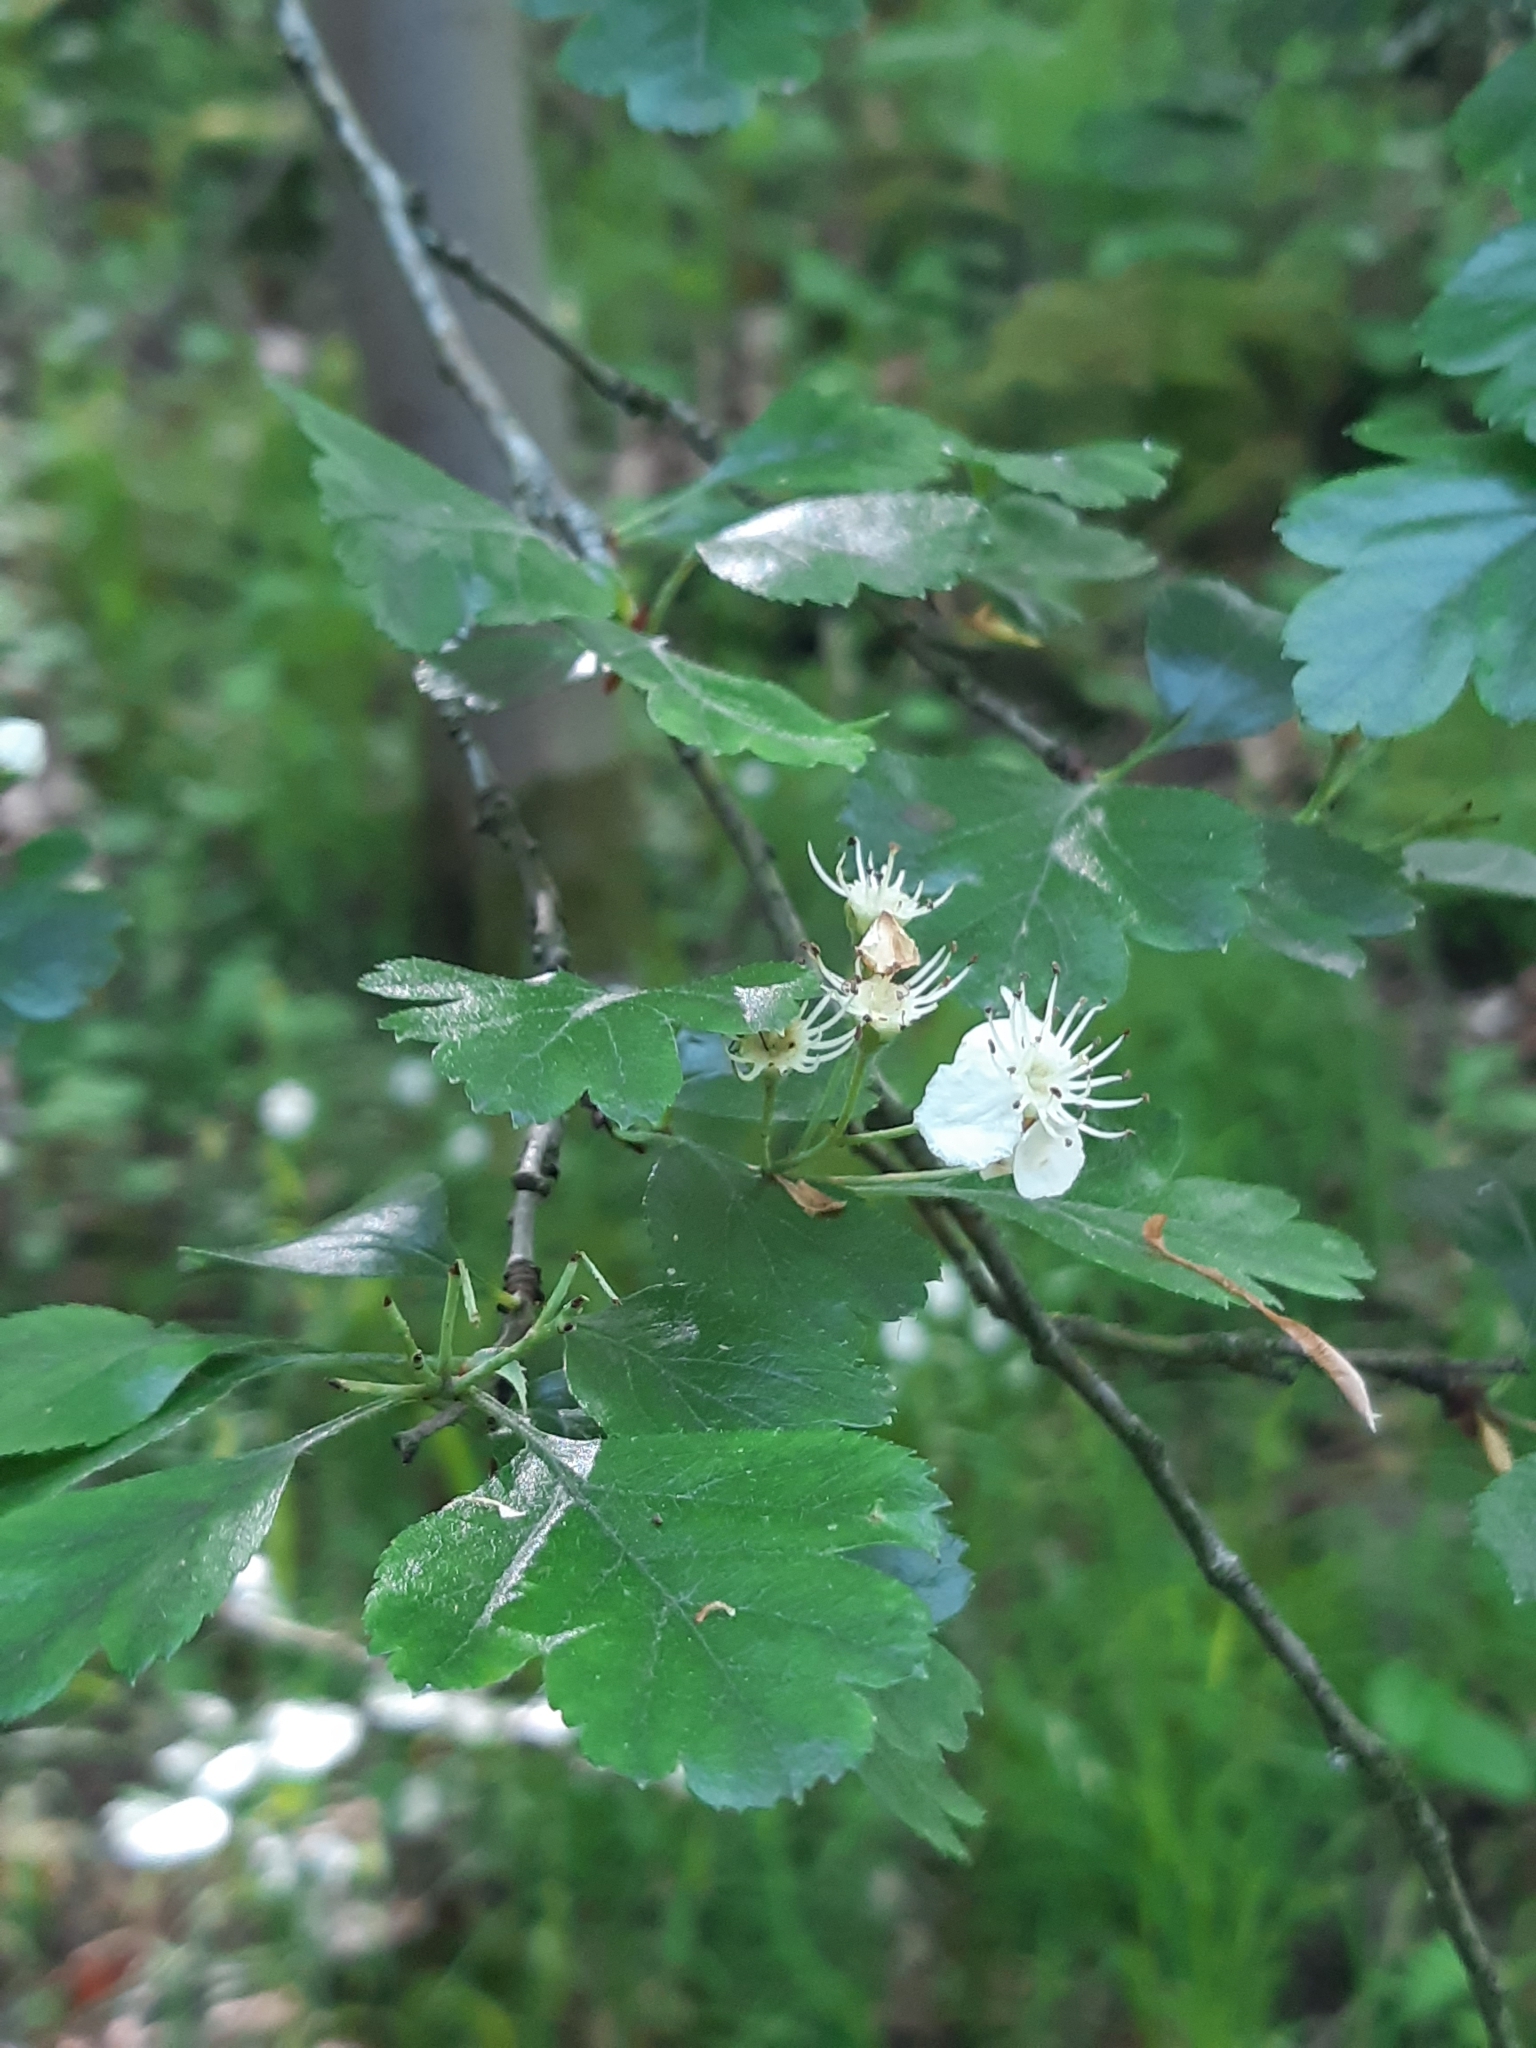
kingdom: Plantae
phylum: Tracheophyta
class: Magnoliopsida
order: Rosales
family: Rosaceae
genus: Crataegus
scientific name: Crataegus laevigata
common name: Midland hawthorn
